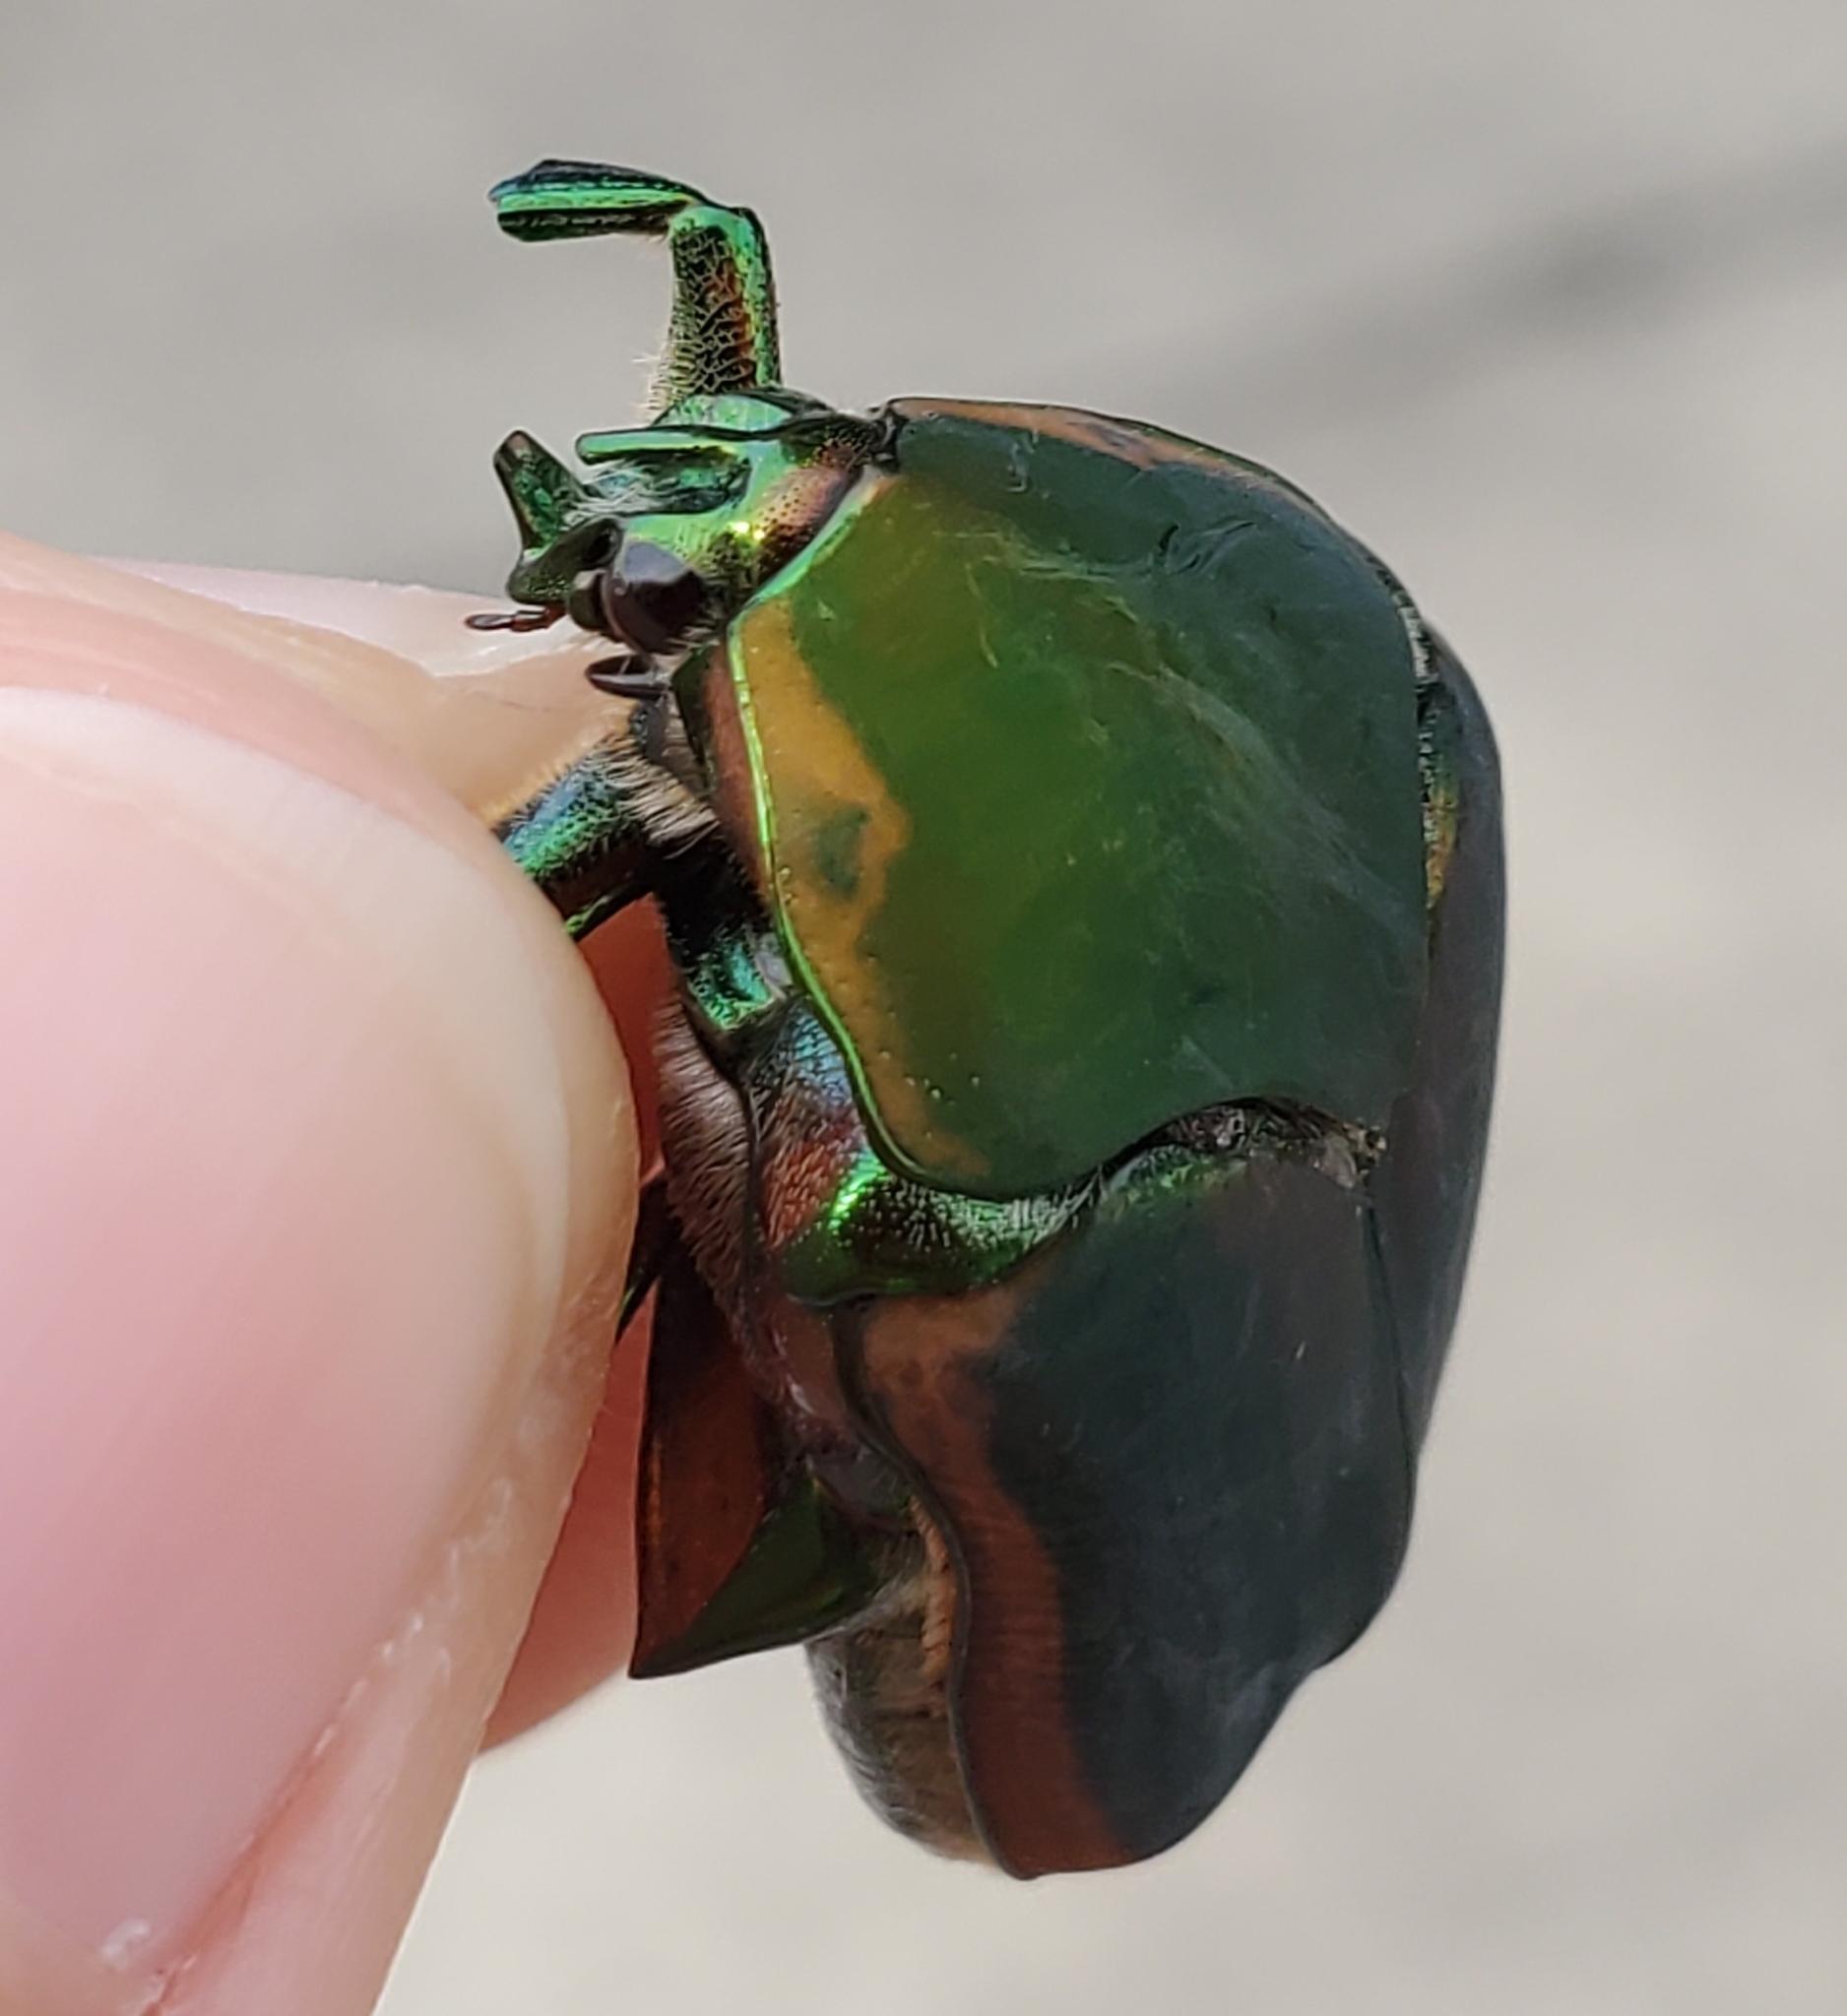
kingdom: Animalia
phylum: Arthropoda
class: Insecta
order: Coleoptera
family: Scarabaeidae
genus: Cotinis
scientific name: Cotinis nitida
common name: Common green june beetle
